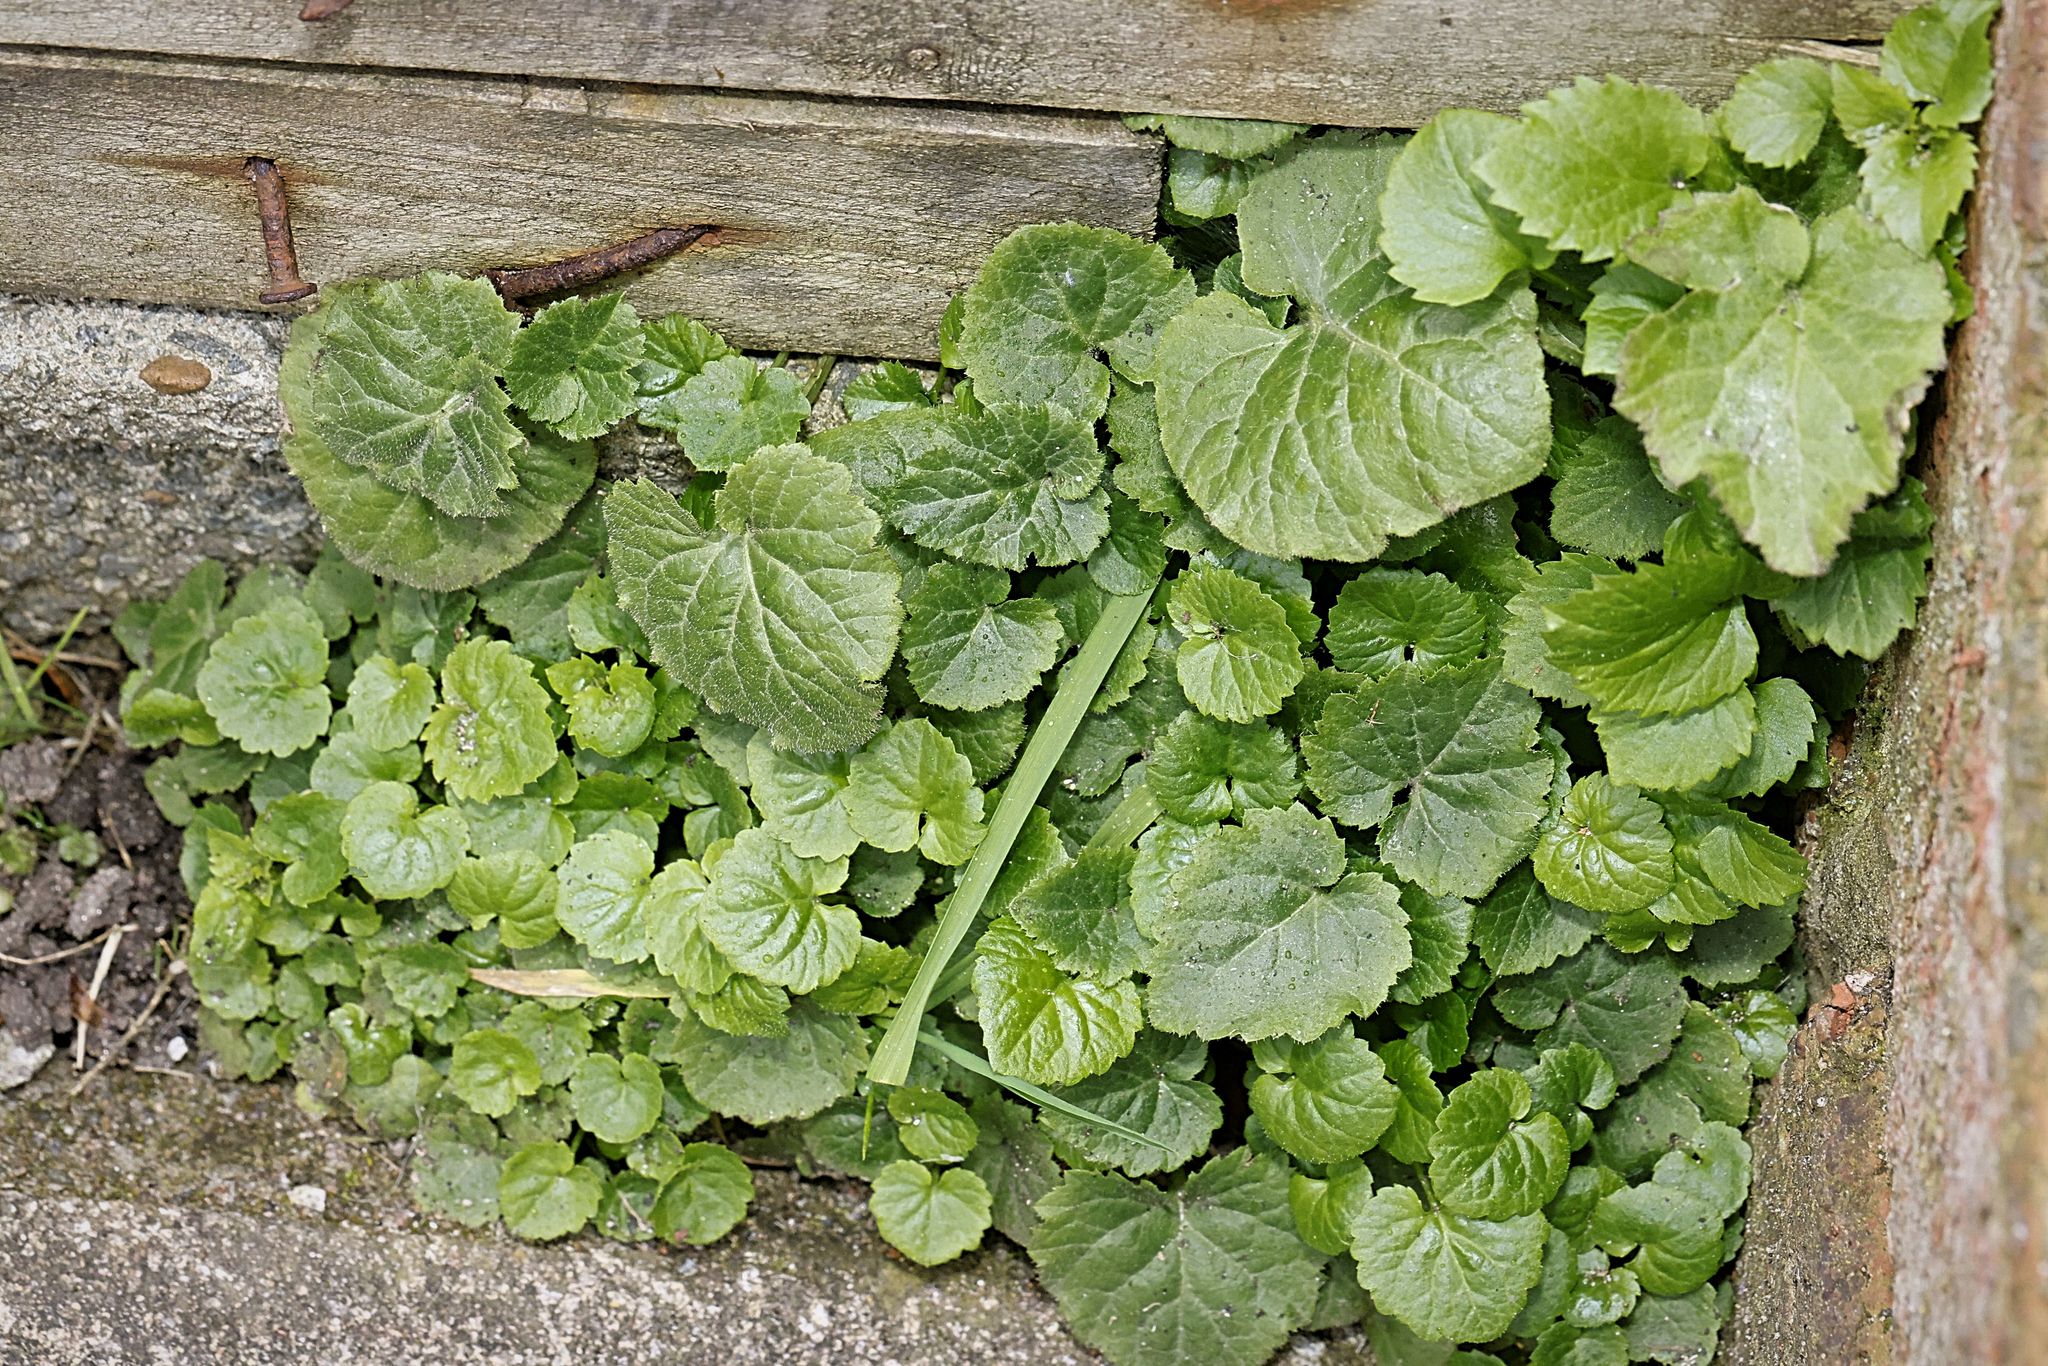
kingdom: Plantae
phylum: Tracheophyta
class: Magnoliopsida
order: Asterales
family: Campanulaceae
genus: Campanula
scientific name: Campanula poscharskyana
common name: Trailing bellflower
